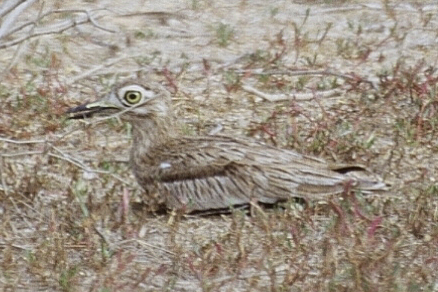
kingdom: Animalia
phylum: Chordata
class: Aves
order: Charadriiformes
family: Burhinidae
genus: Burhinus
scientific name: Burhinus senegalensis
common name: Senegal thick-knee
